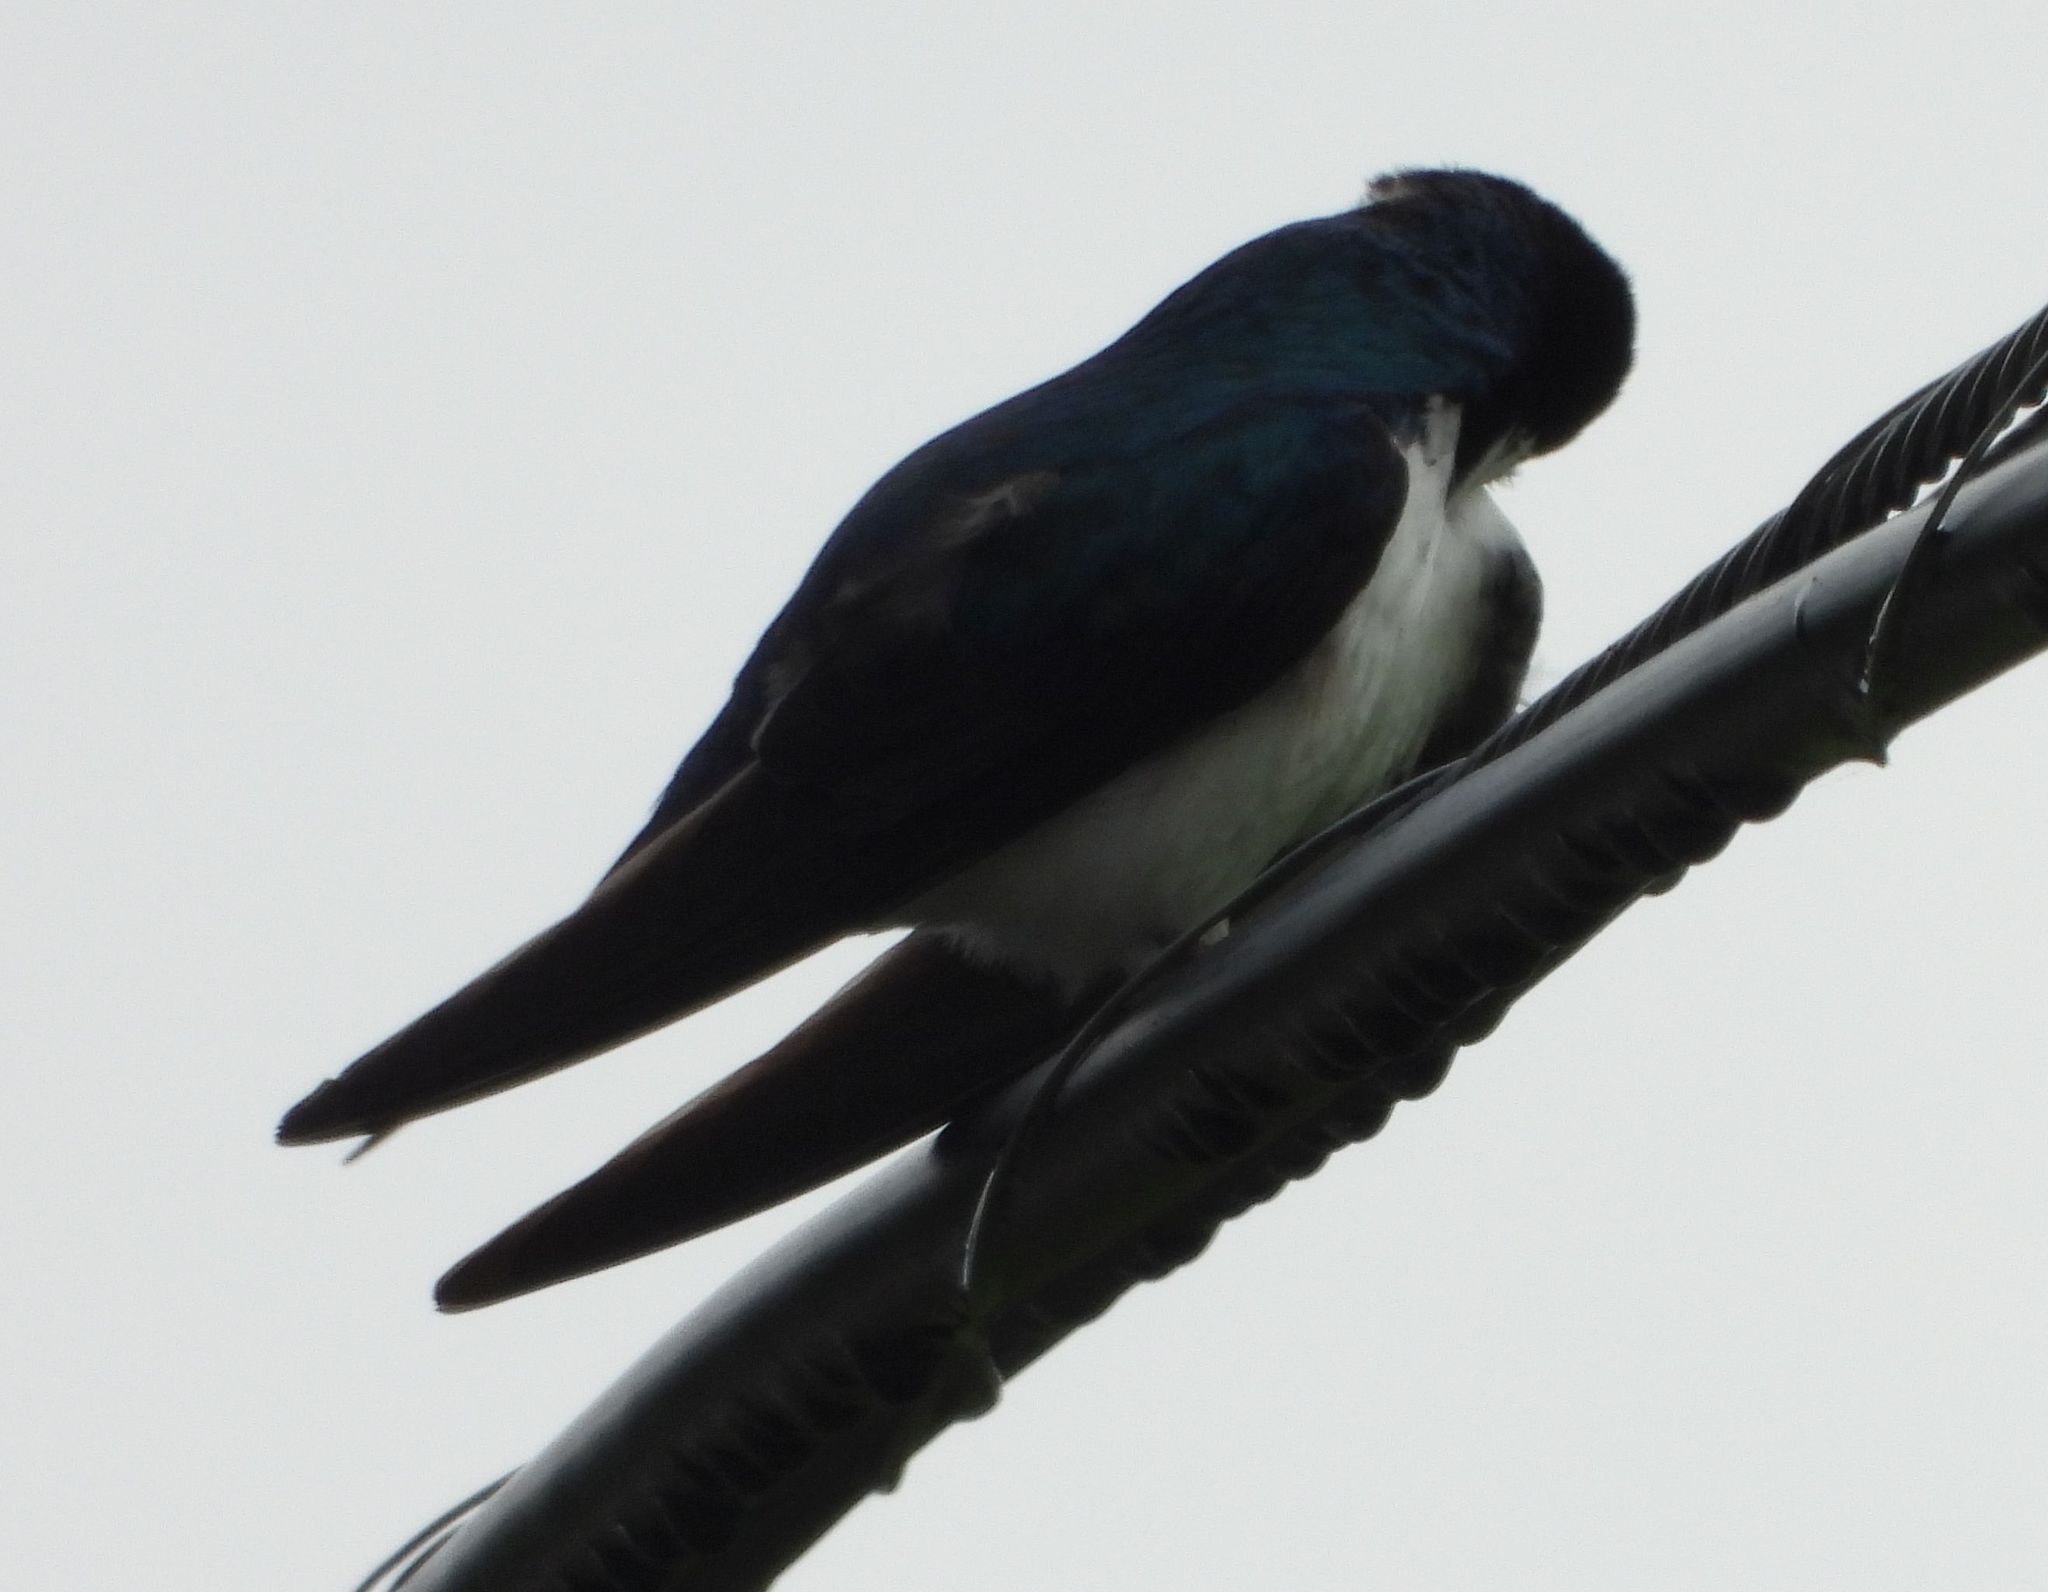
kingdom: Animalia
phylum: Chordata
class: Aves
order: Passeriformes
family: Hirundinidae
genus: Tachycineta
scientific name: Tachycineta bicolor
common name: Tree swallow
